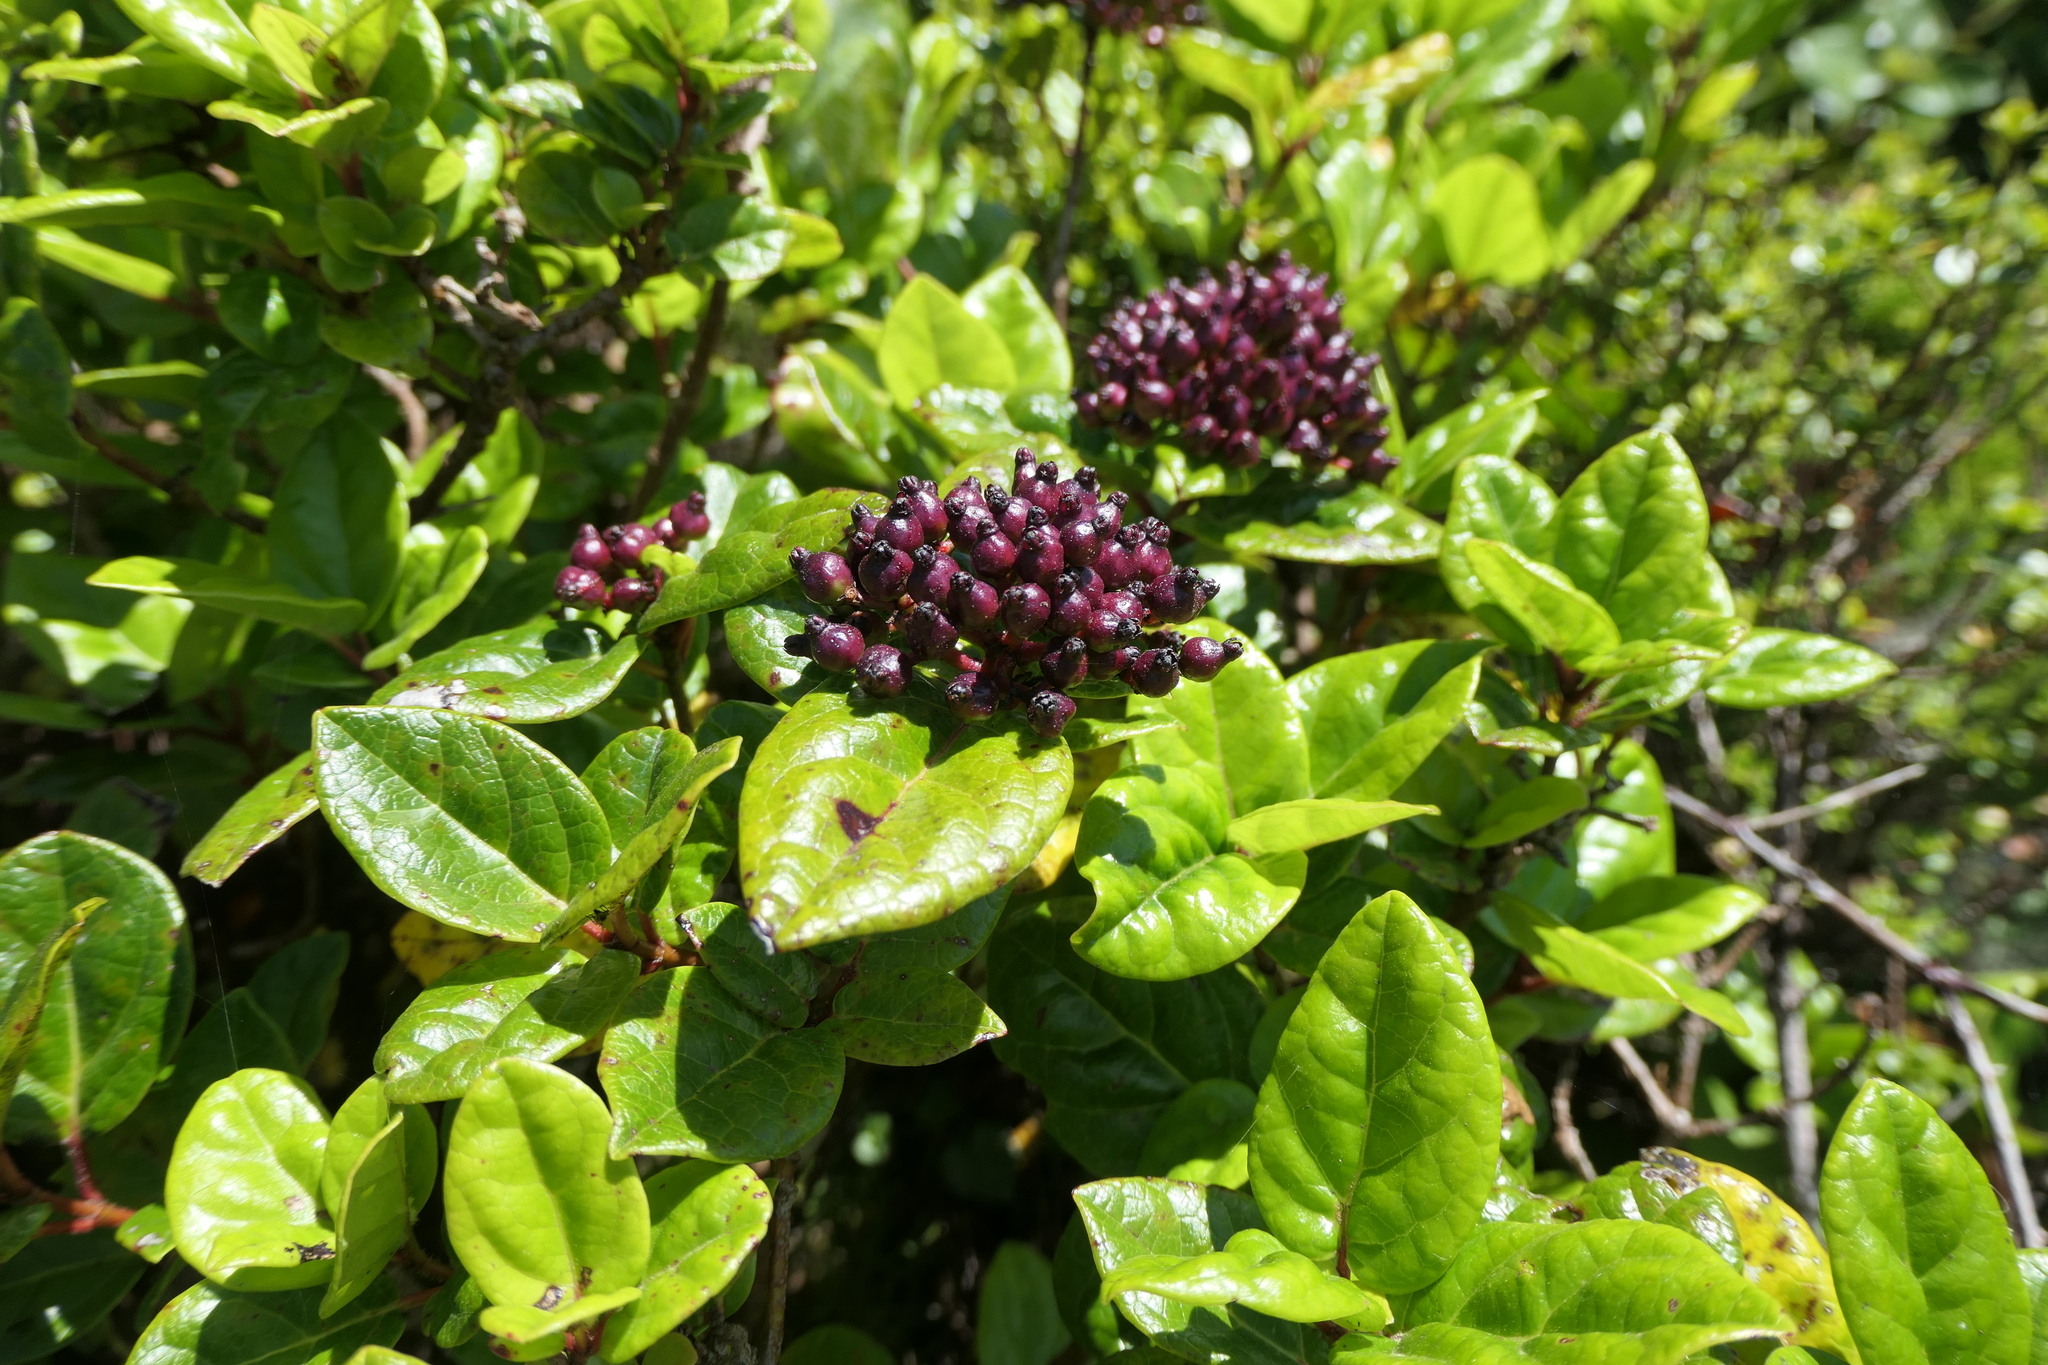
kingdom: Plantae
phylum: Tracheophyta
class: Magnoliopsida
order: Dipsacales
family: Viburnaceae
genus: Viburnum
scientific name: Viburnum treleasei
